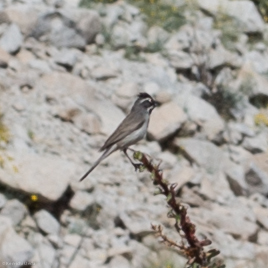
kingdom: Animalia
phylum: Chordata
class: Aves
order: Passeriformes
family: Passerellidae
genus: Amphispiza
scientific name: Amphispiza bilineata
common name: Black-throated sparrow
